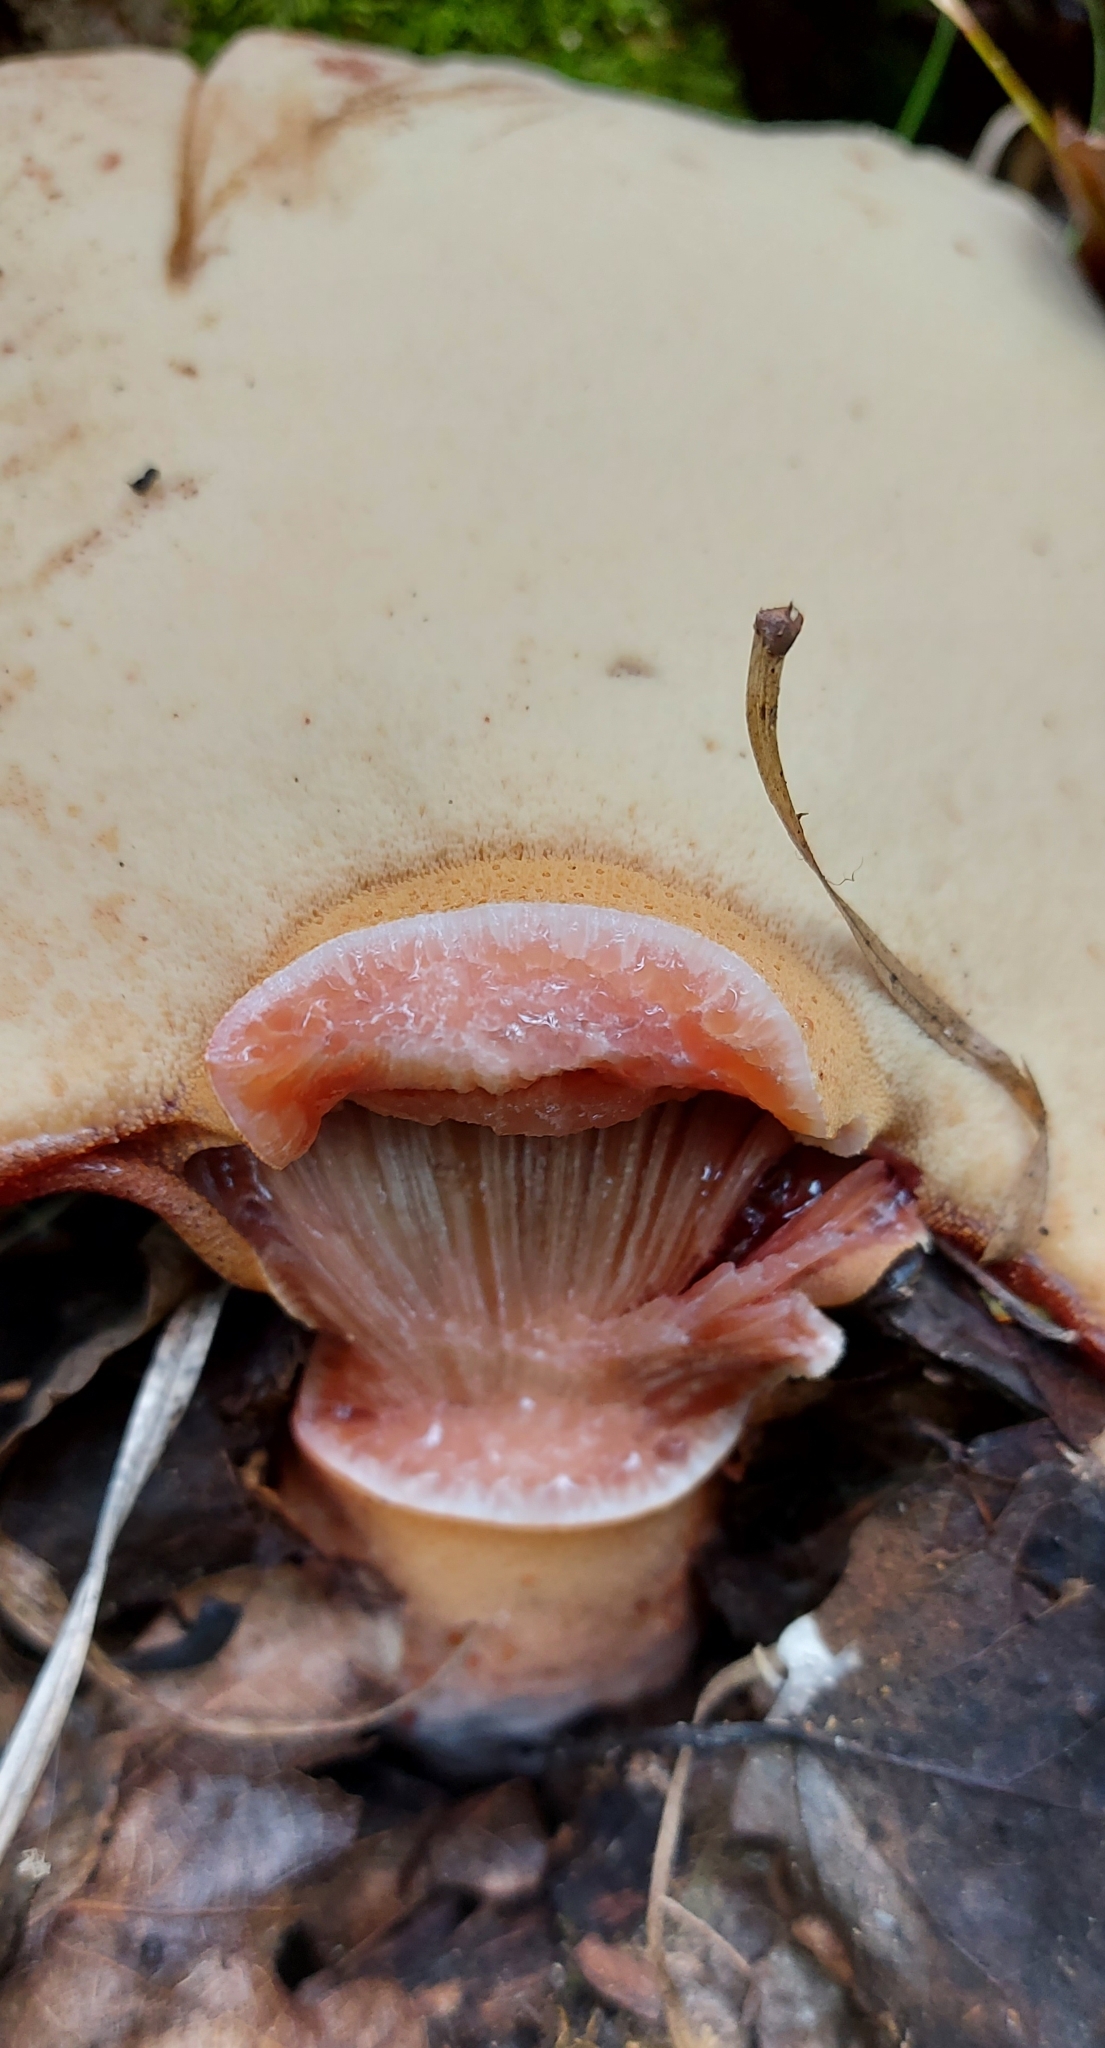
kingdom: Fungi
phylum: Basidiomycota
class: Agaricomycetes
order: Agaricales
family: Fistulinaceae
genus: Fistulina
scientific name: Fistulina hepatica
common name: Beef-steak fungus
